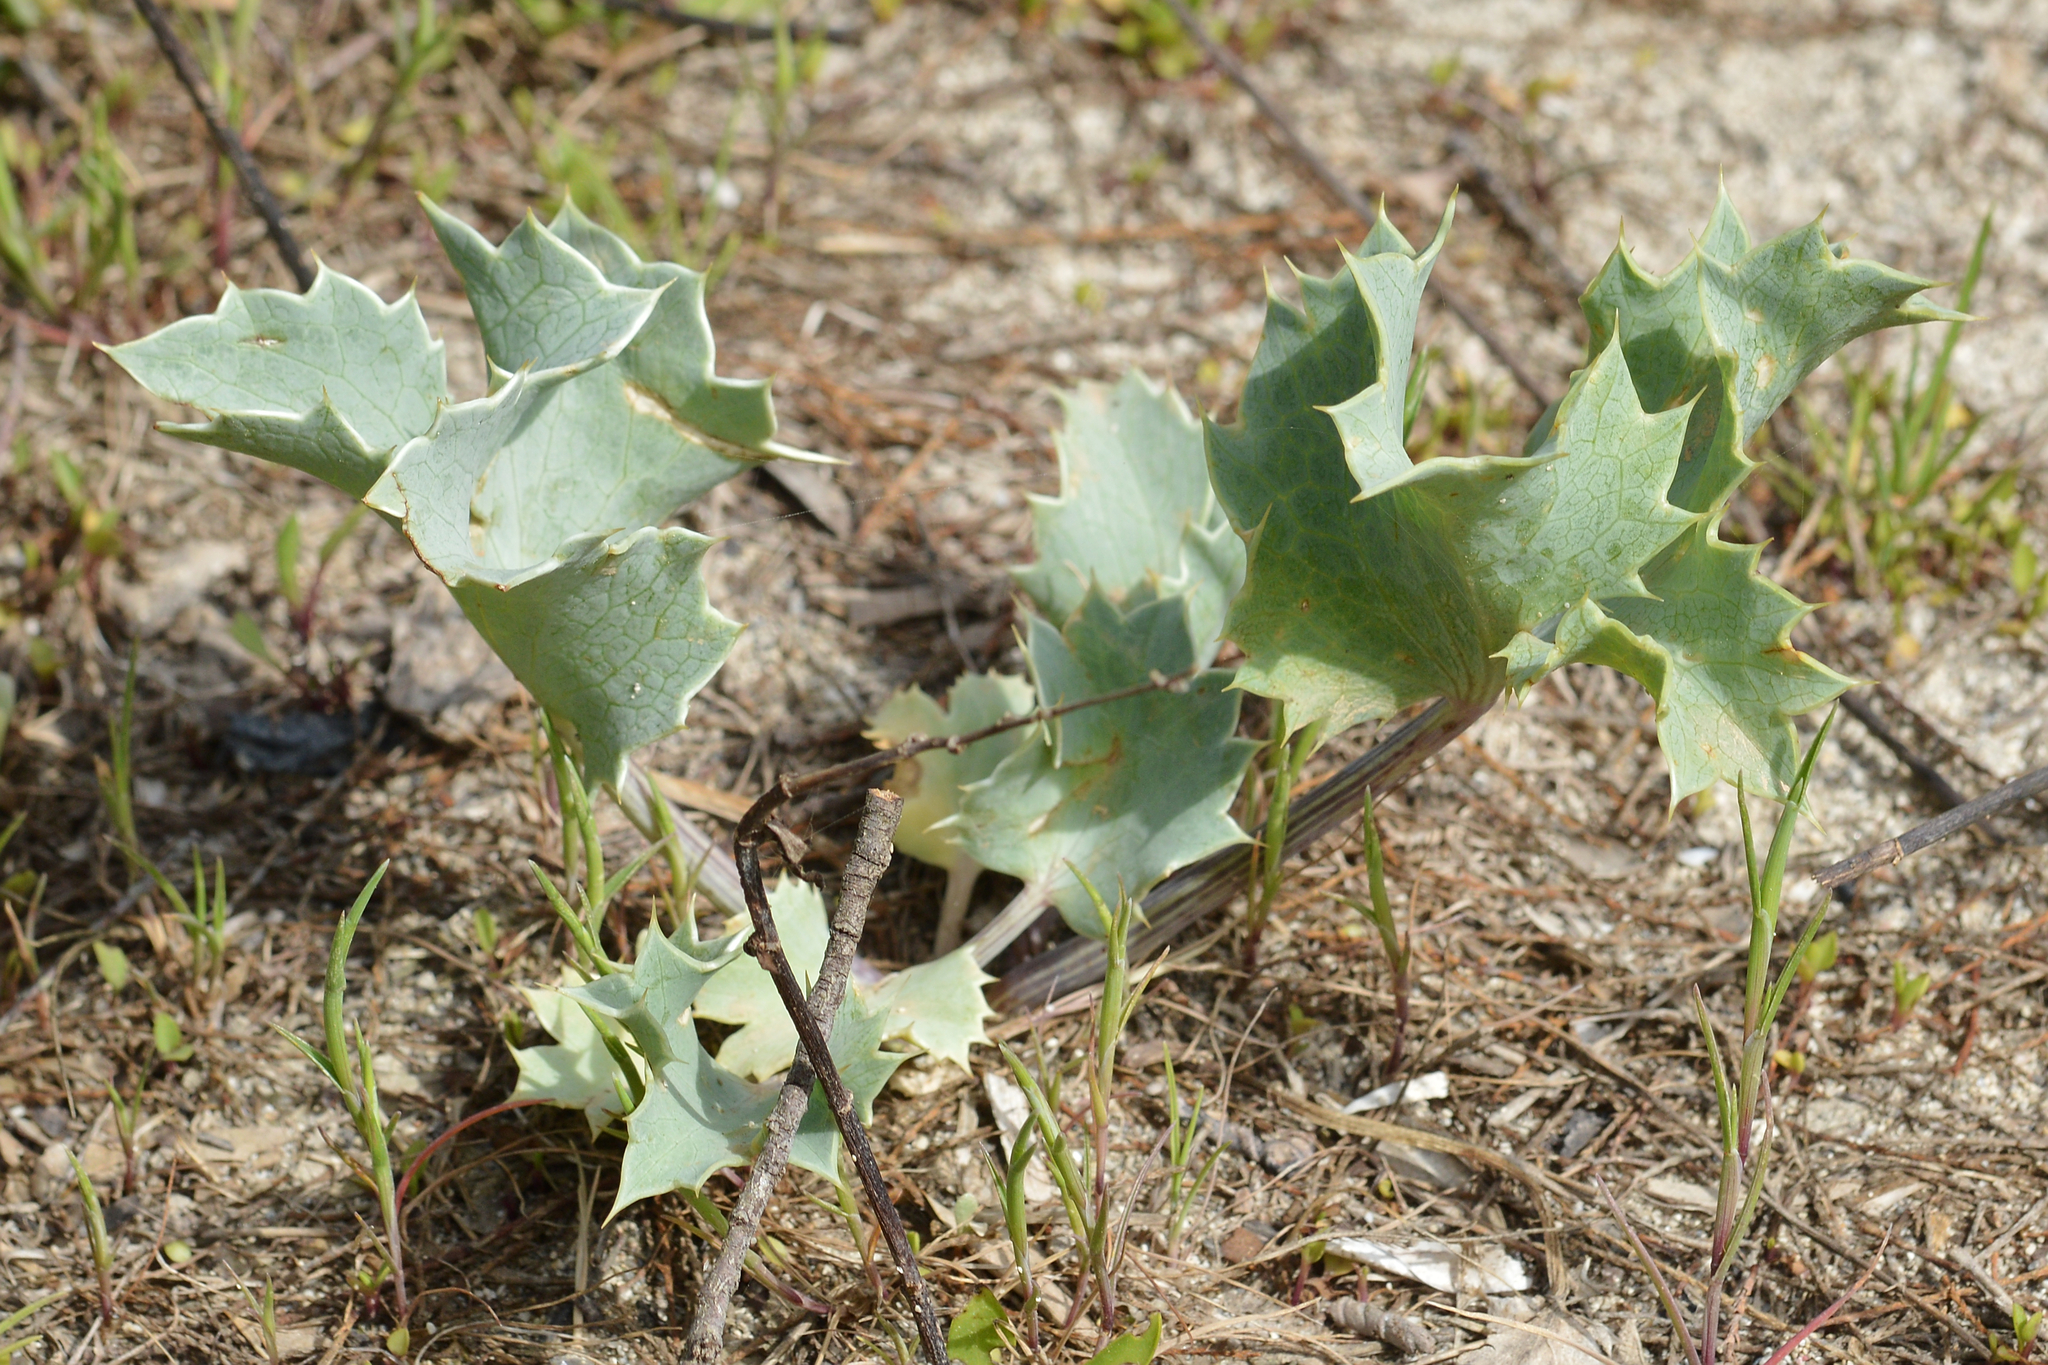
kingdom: Plantae
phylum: Tracheophyta
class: Magnoliopsida
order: Apiales
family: Apiaceae
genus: Eryngium
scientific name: Eryngium maritimum
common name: Sea-holly
